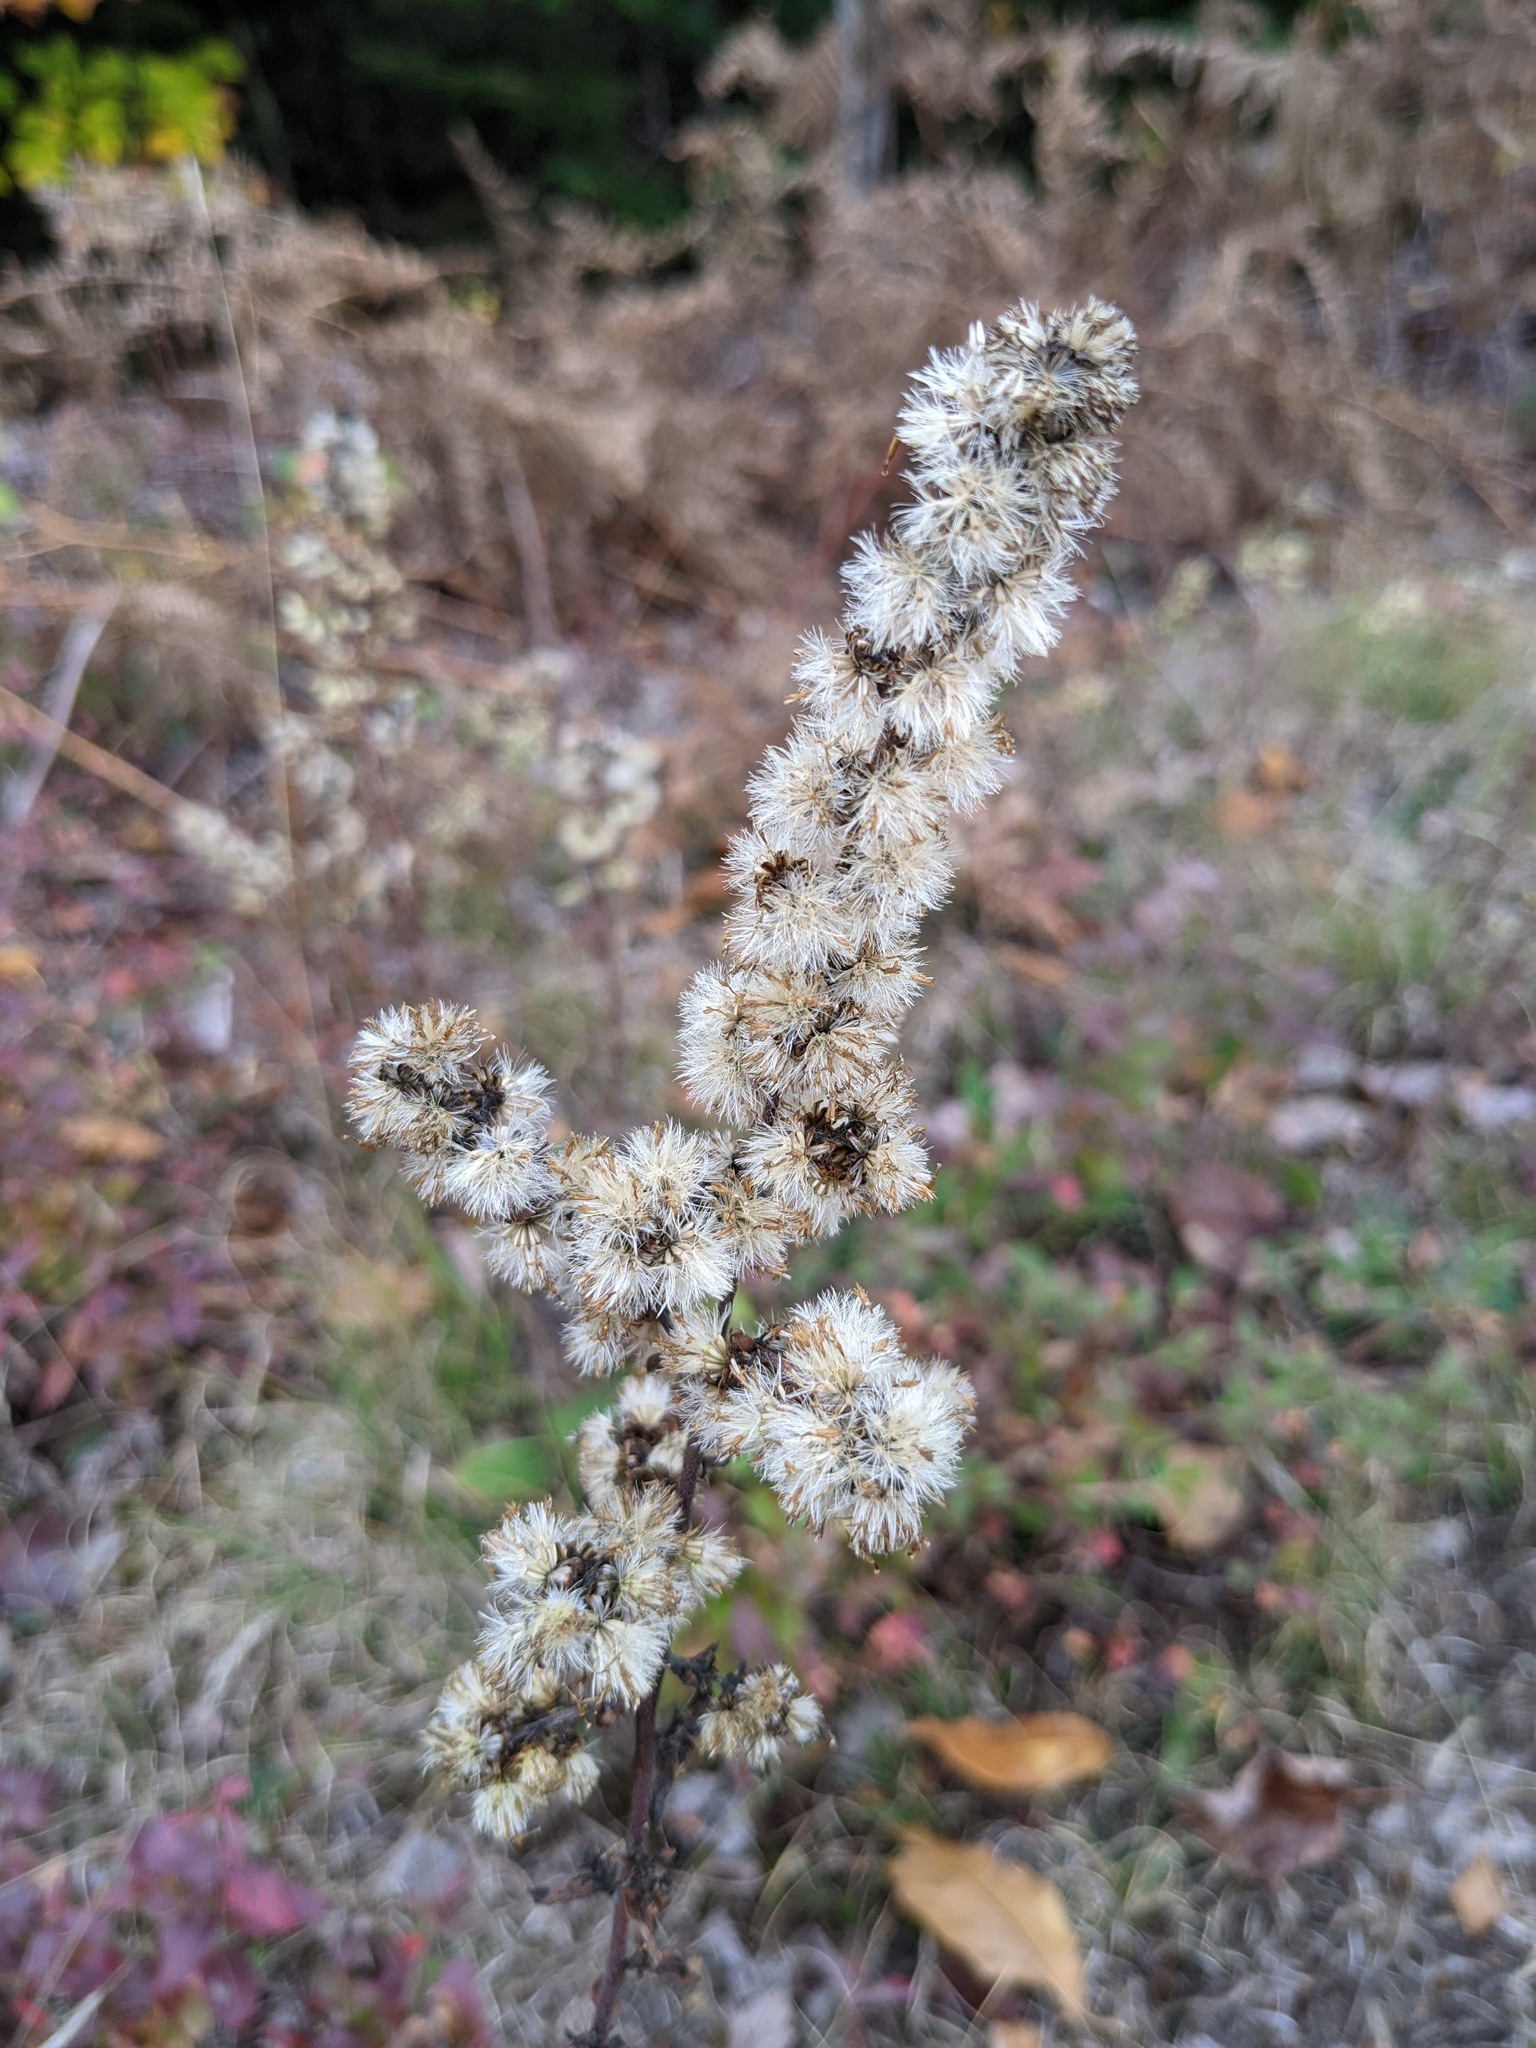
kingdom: Plantae
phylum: Tracheophyta
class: Magnoliopsida
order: Asterales
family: Asteraceae
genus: Solidago
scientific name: Solidago bicolor
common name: Silverrod
